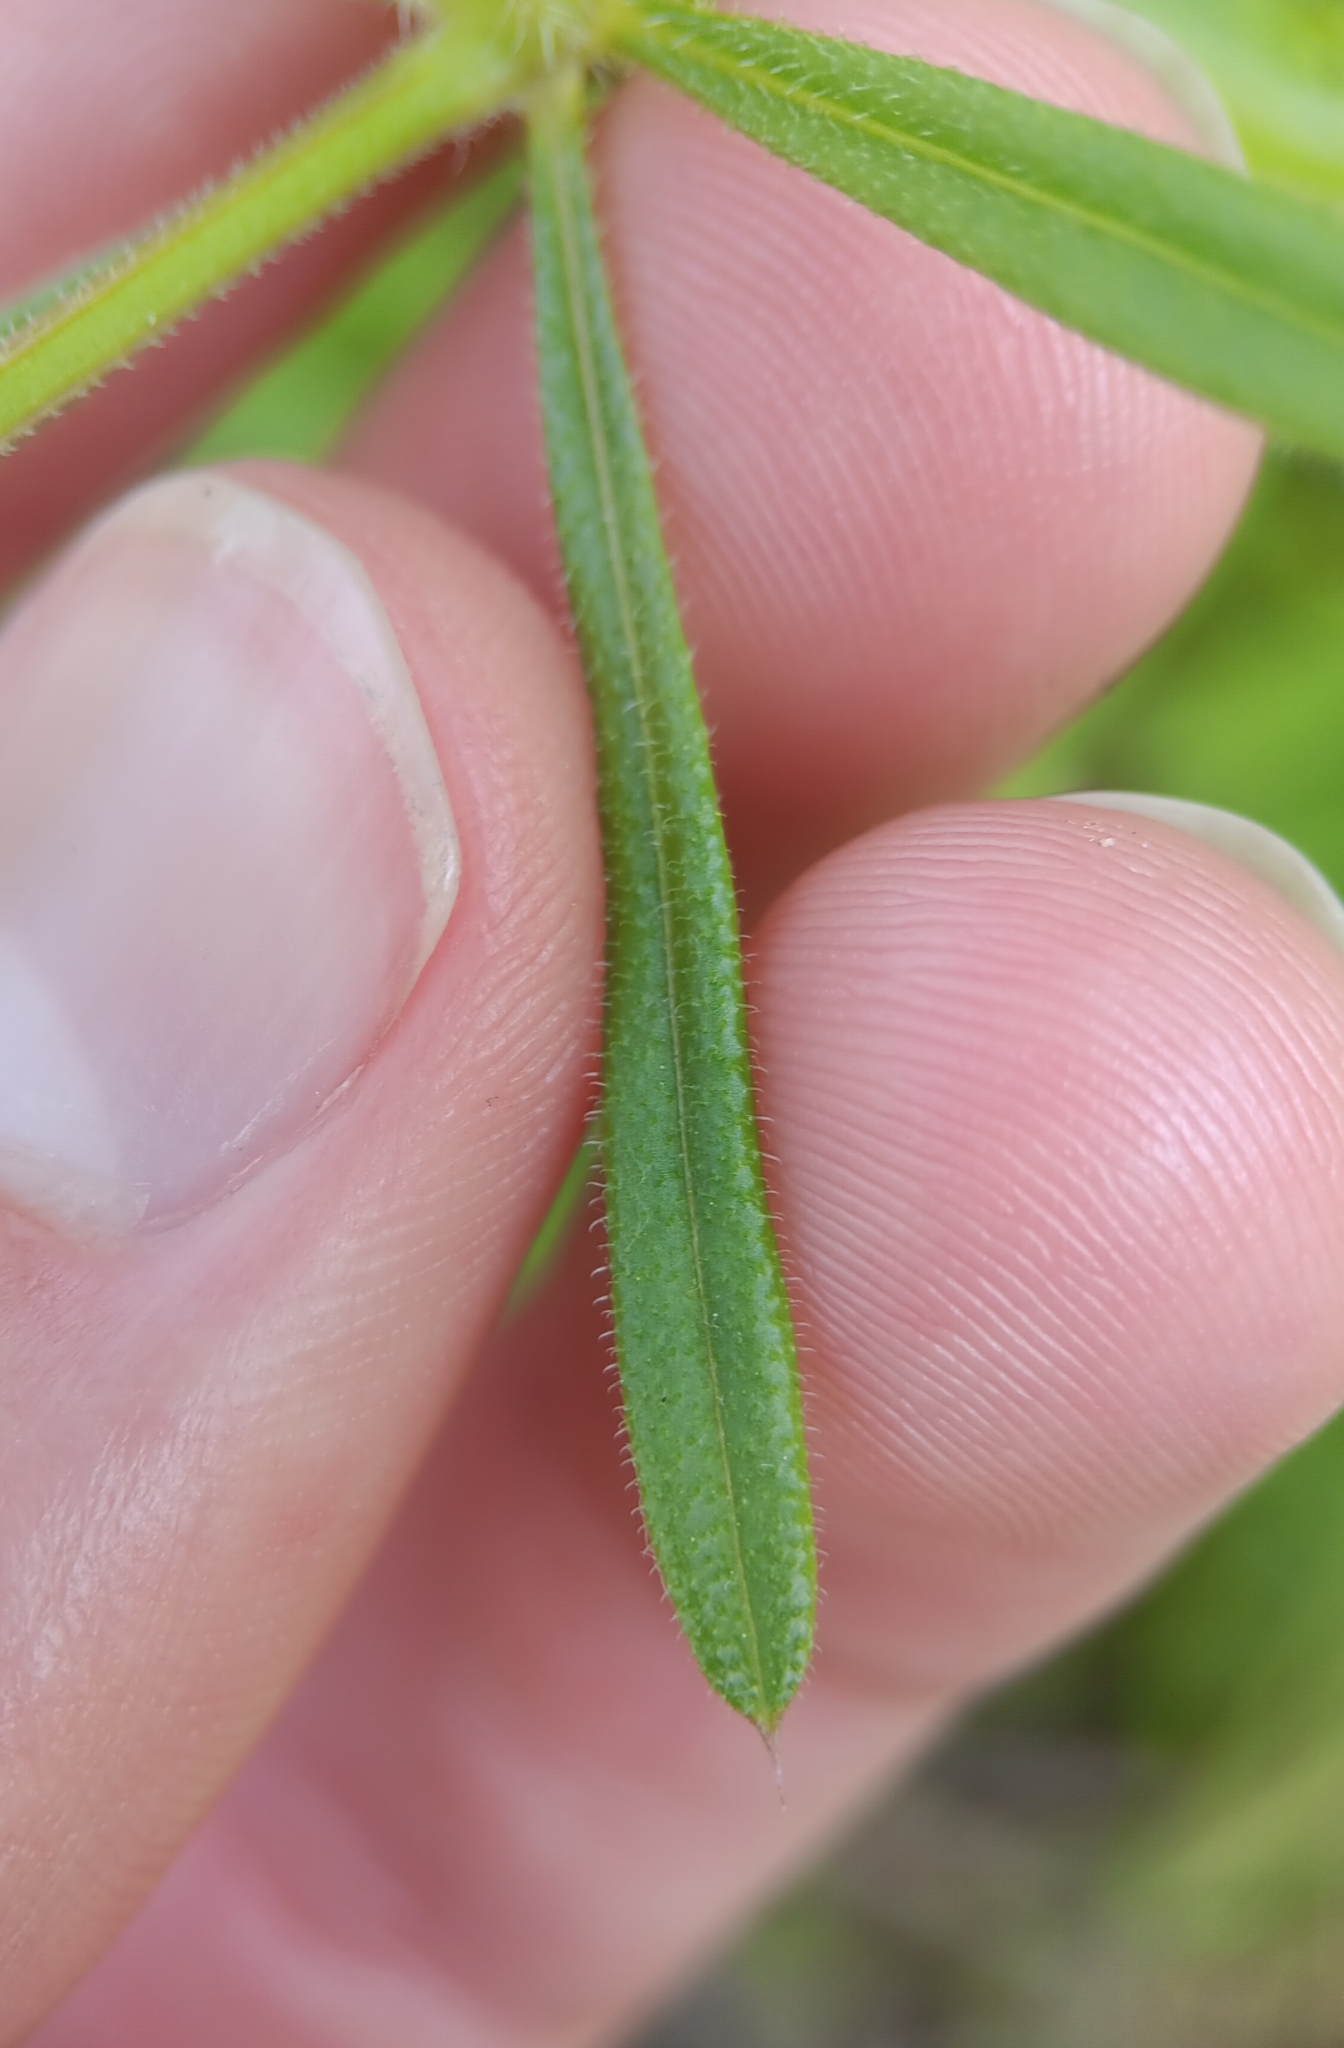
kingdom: Plantae
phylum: Tracheophyta
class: Magnoliopsida
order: Gentianales
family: Rubiaceae
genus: Galium
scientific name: Galium aparine
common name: Cleavers
